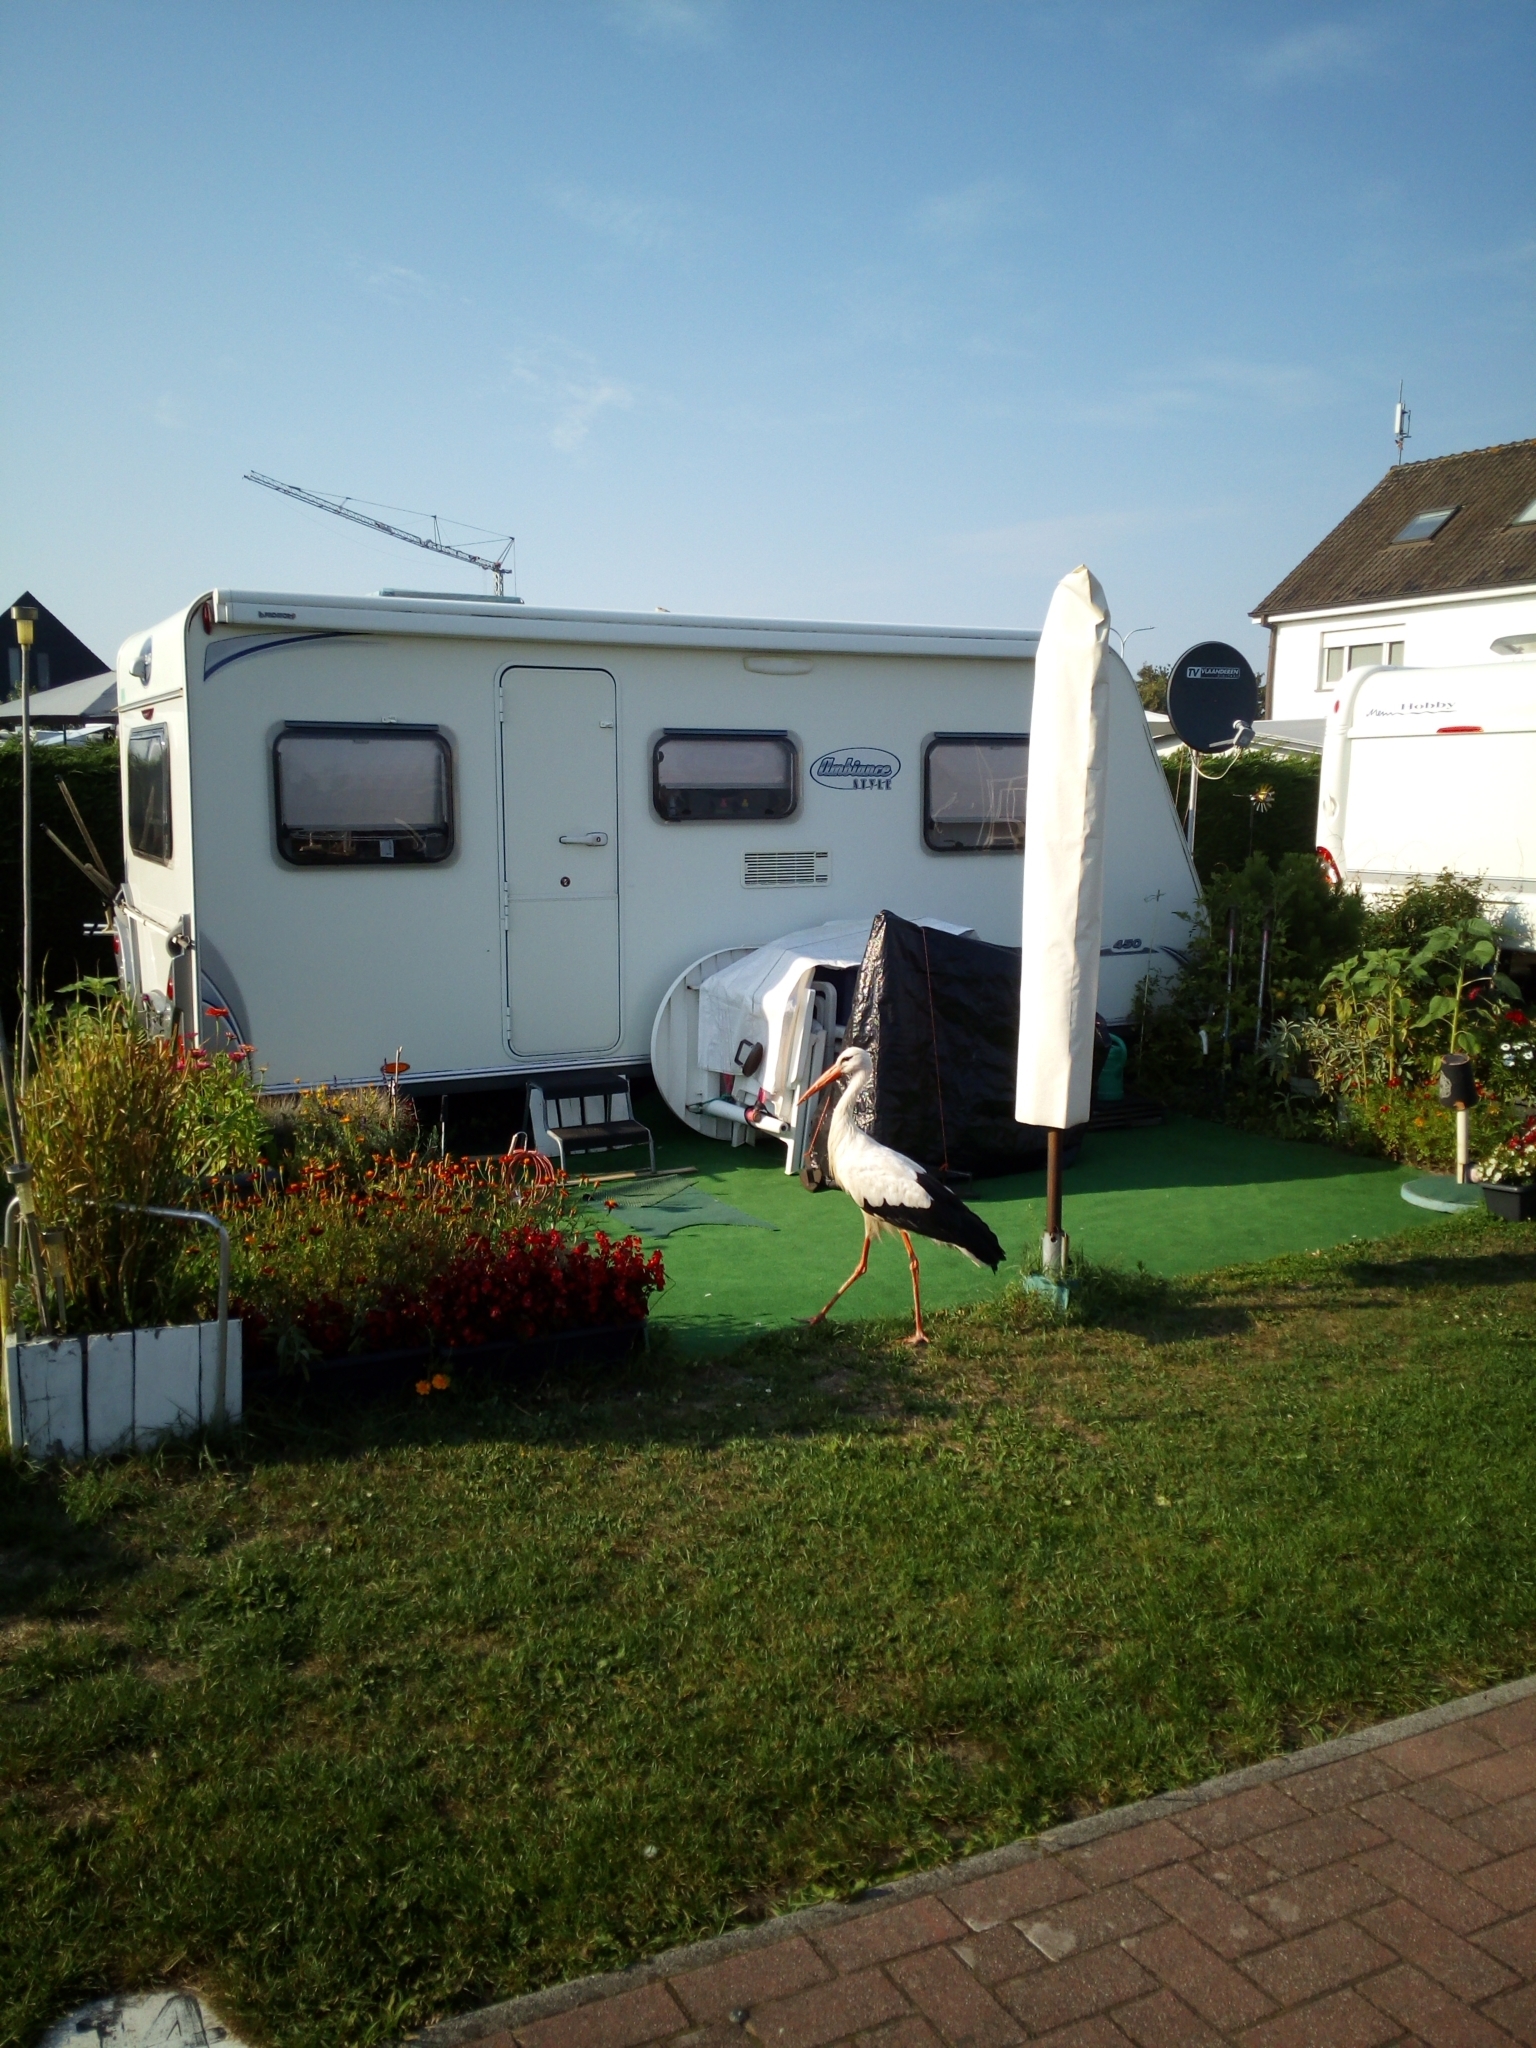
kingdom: Animalia
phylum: Chordata
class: Aves
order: Ciconiiformes
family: Ciconiidae
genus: Ciconia
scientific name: Ciconia ciconia
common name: White stork
